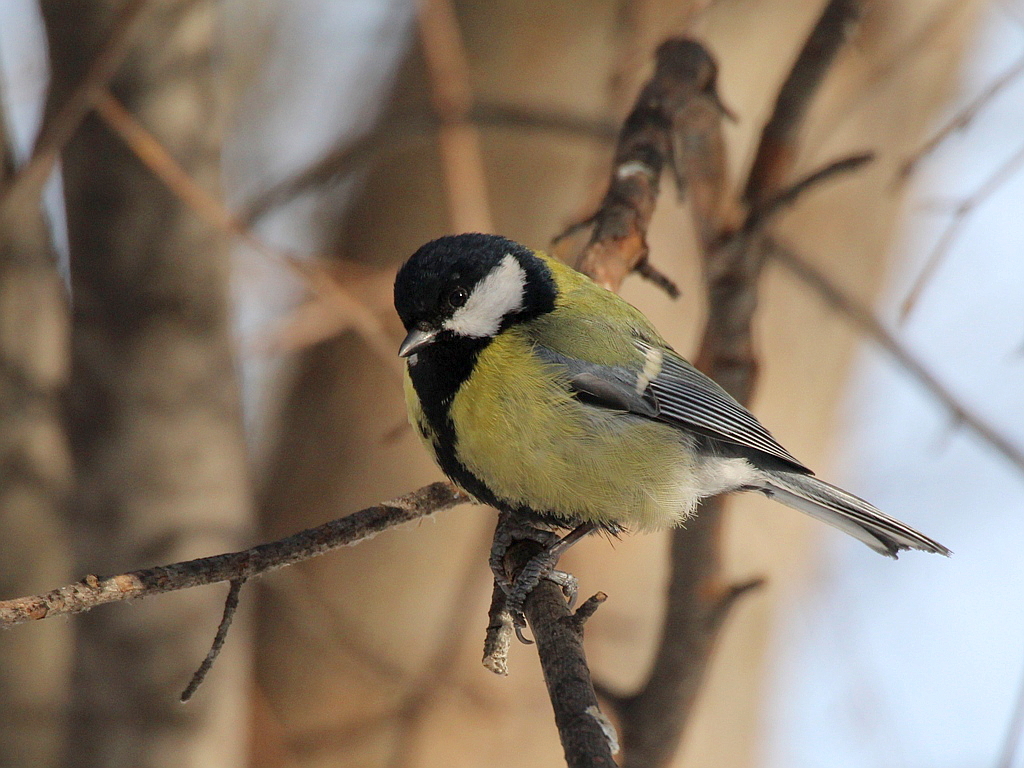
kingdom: Animalia
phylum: Chordata
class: Aves
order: Passeriformes
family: Paridae
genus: Parus
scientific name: Parus major
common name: Great tit
